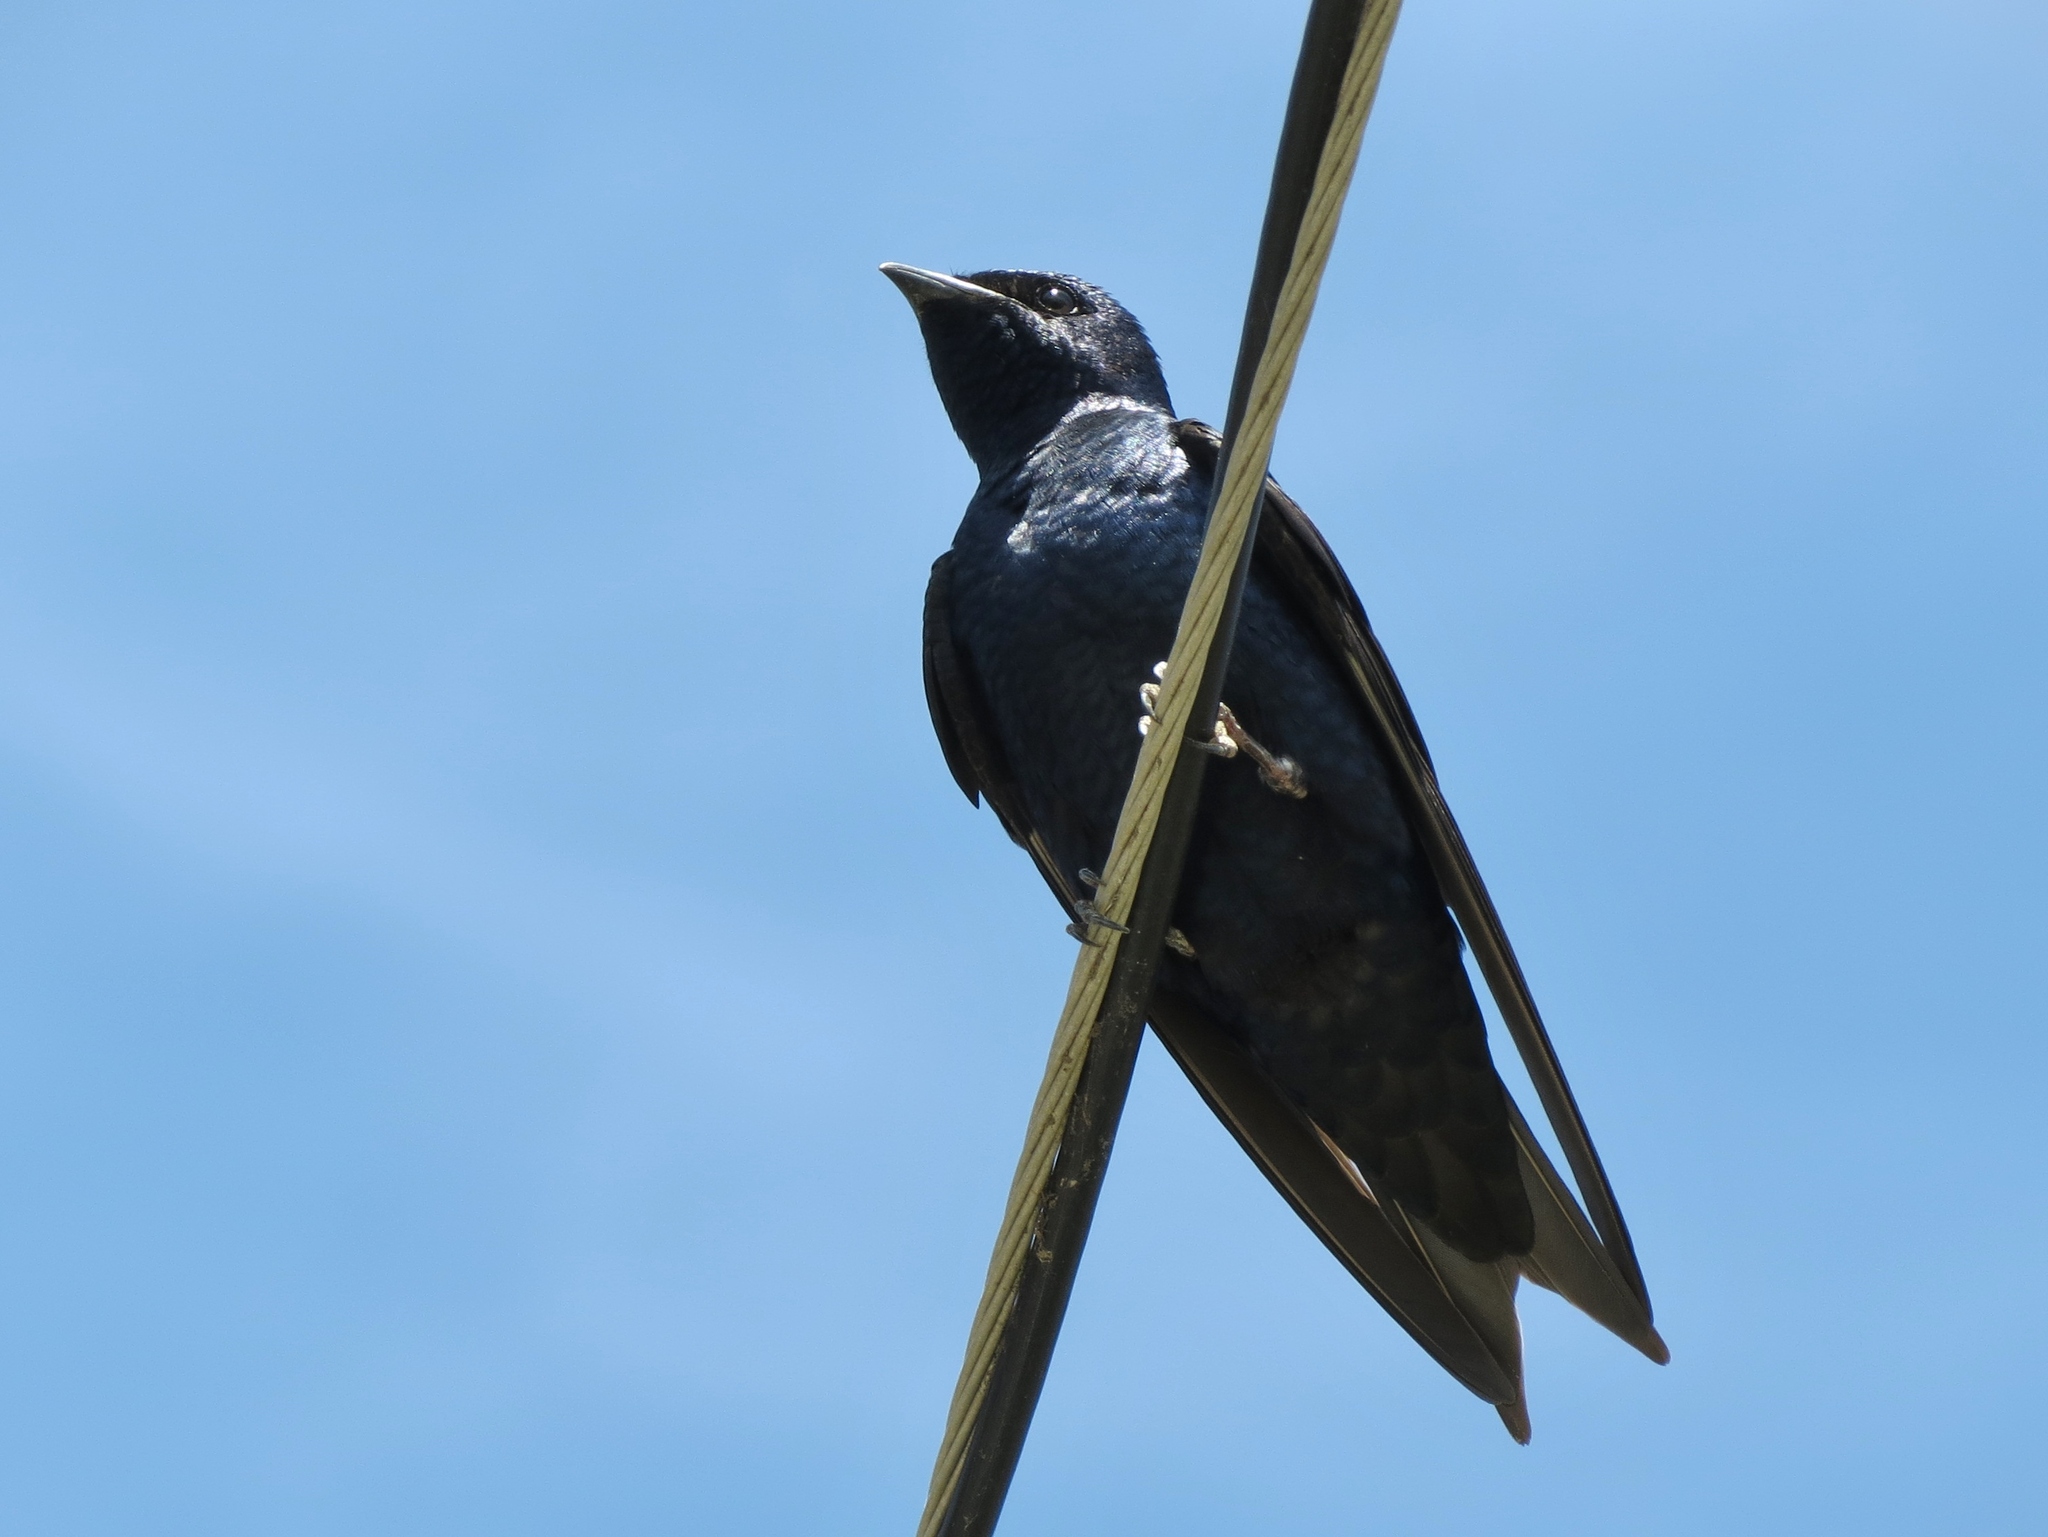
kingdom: Animalia
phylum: Chordata
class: Aves
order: Passeriformes
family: Hirundinidae
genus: Progne
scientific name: Progne subis
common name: Purple martin
